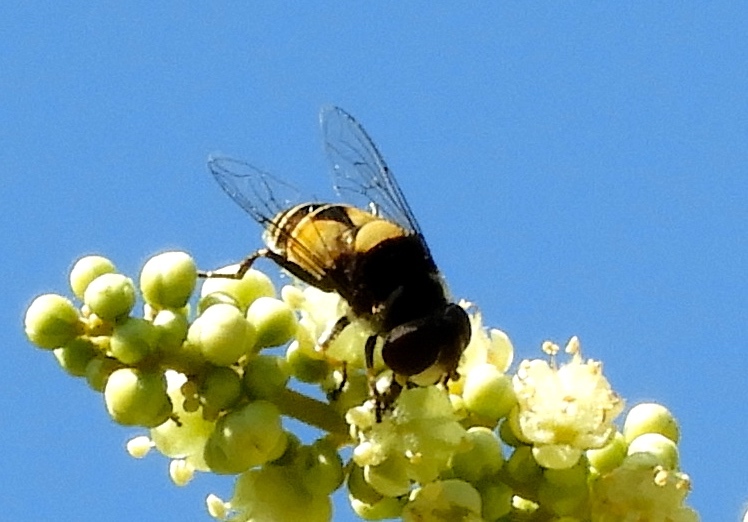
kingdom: Animalia
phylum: Arthropoda
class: Insecta
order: Diptera
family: Syrphidae
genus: Palpada
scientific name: Palpada
